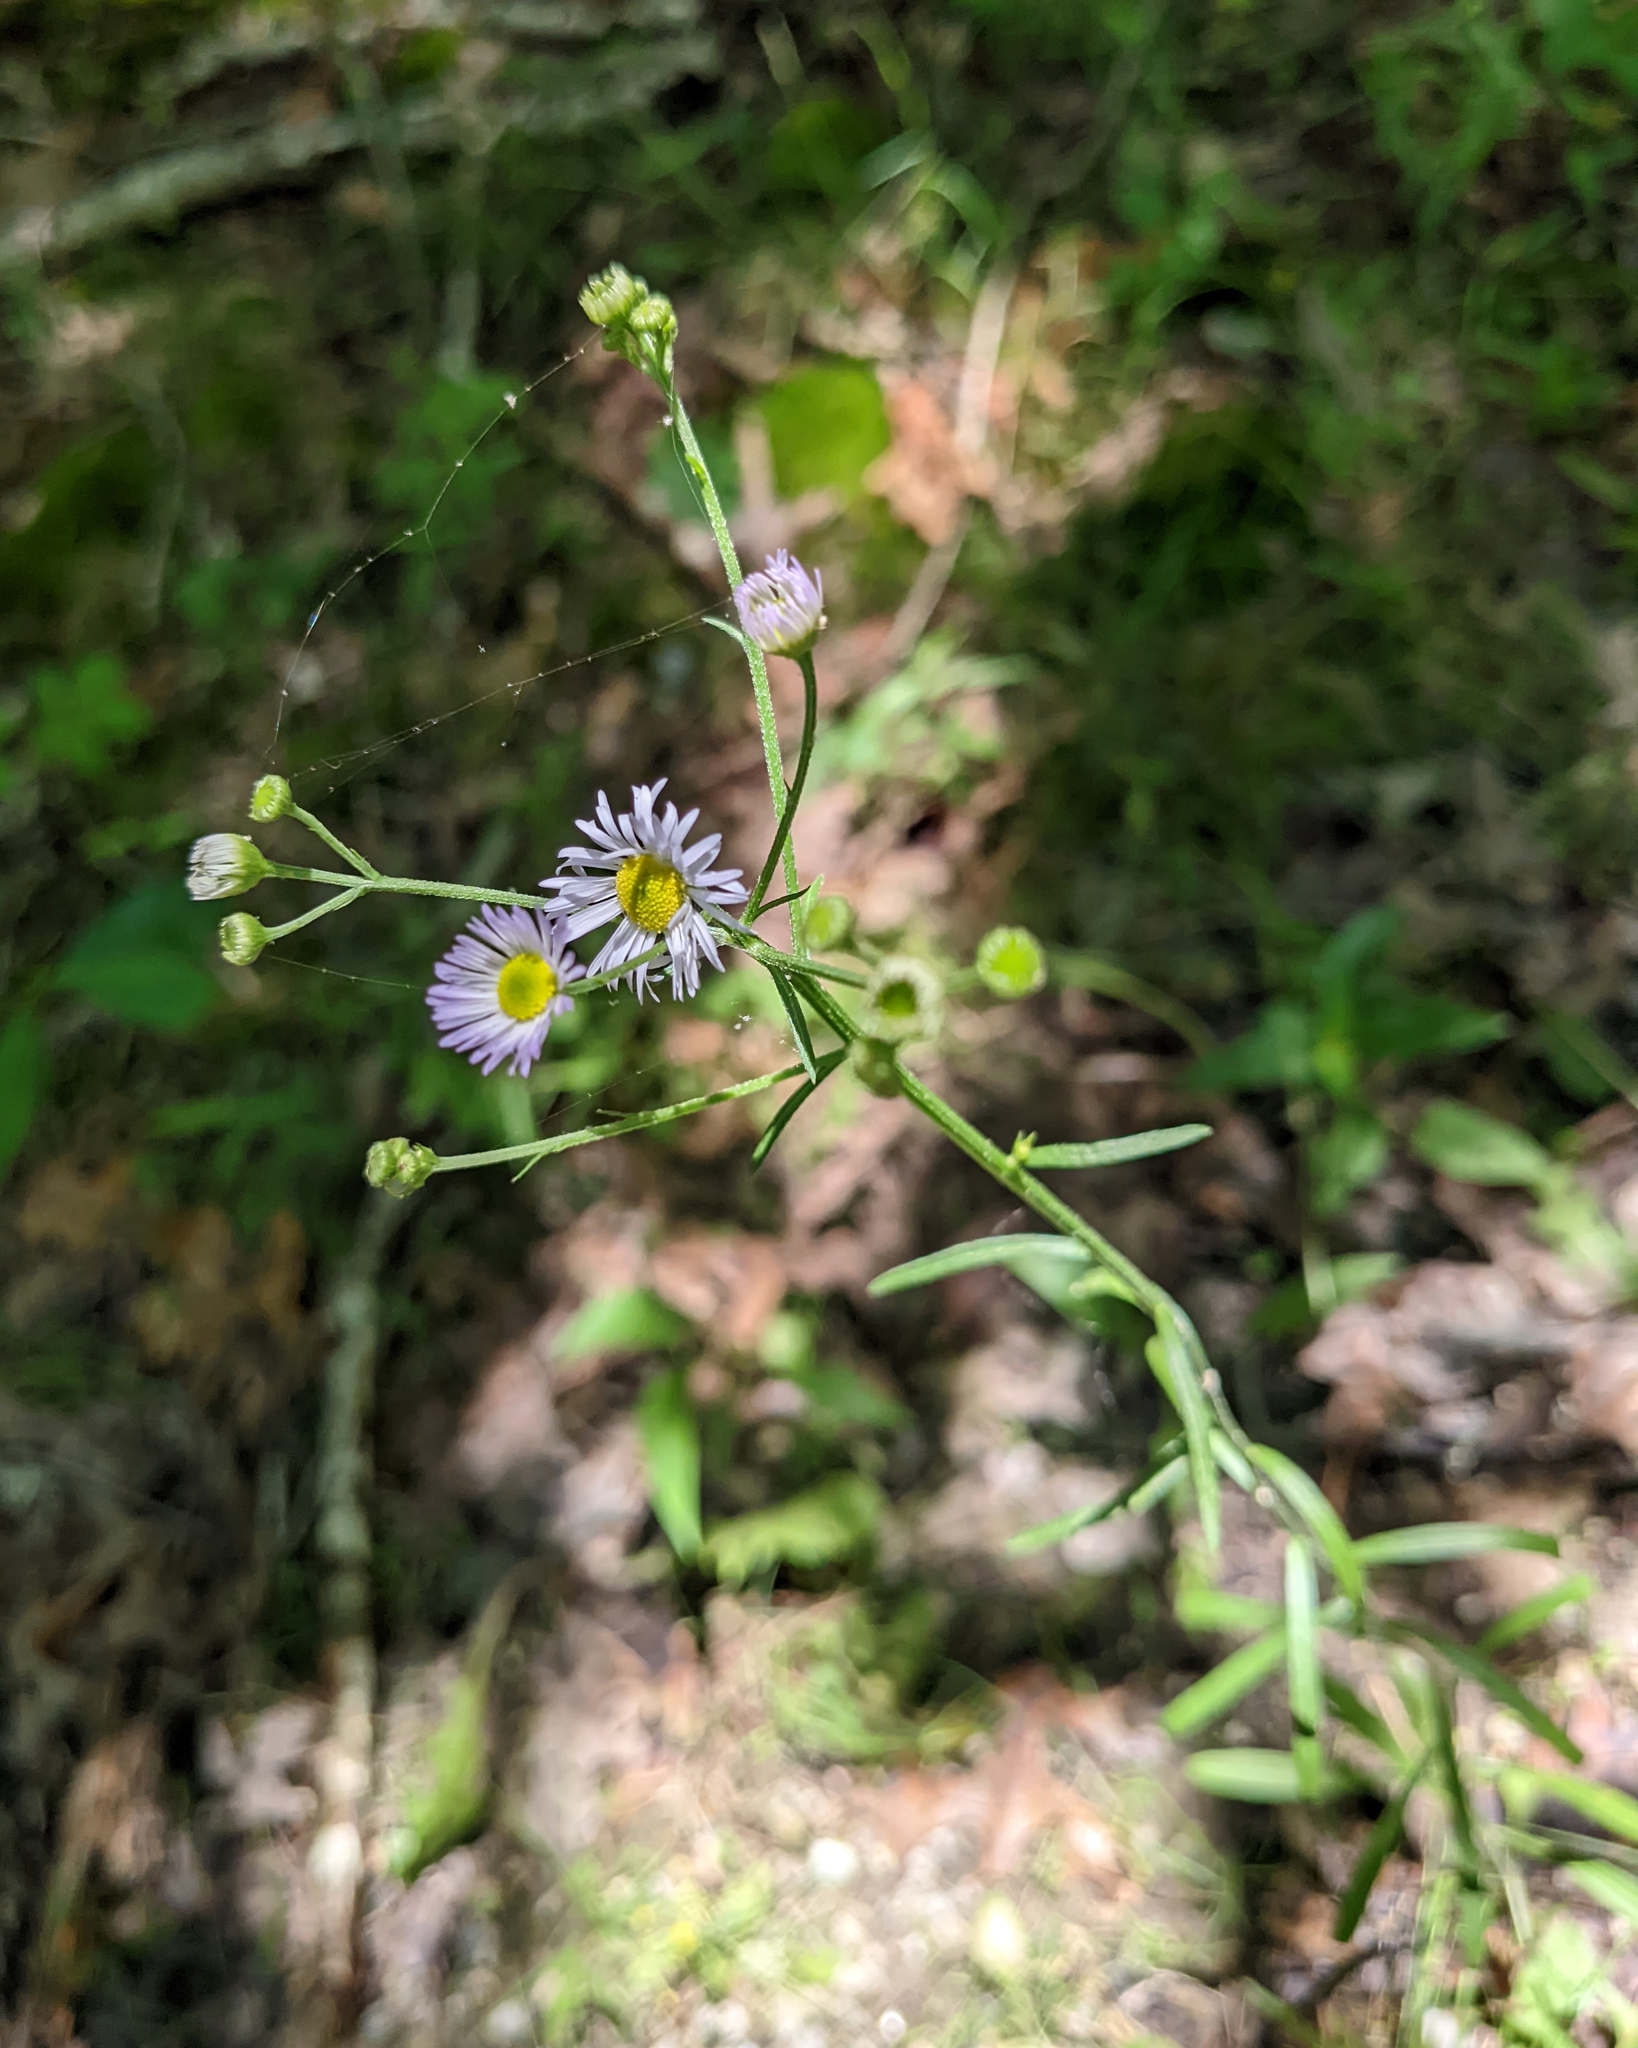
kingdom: Plantae
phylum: Tracheophyta
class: Magnoliopsida
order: Asterales
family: Asteraceae
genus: Erigeron
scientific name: Erigeron strigosus
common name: Common eastern fleabane
